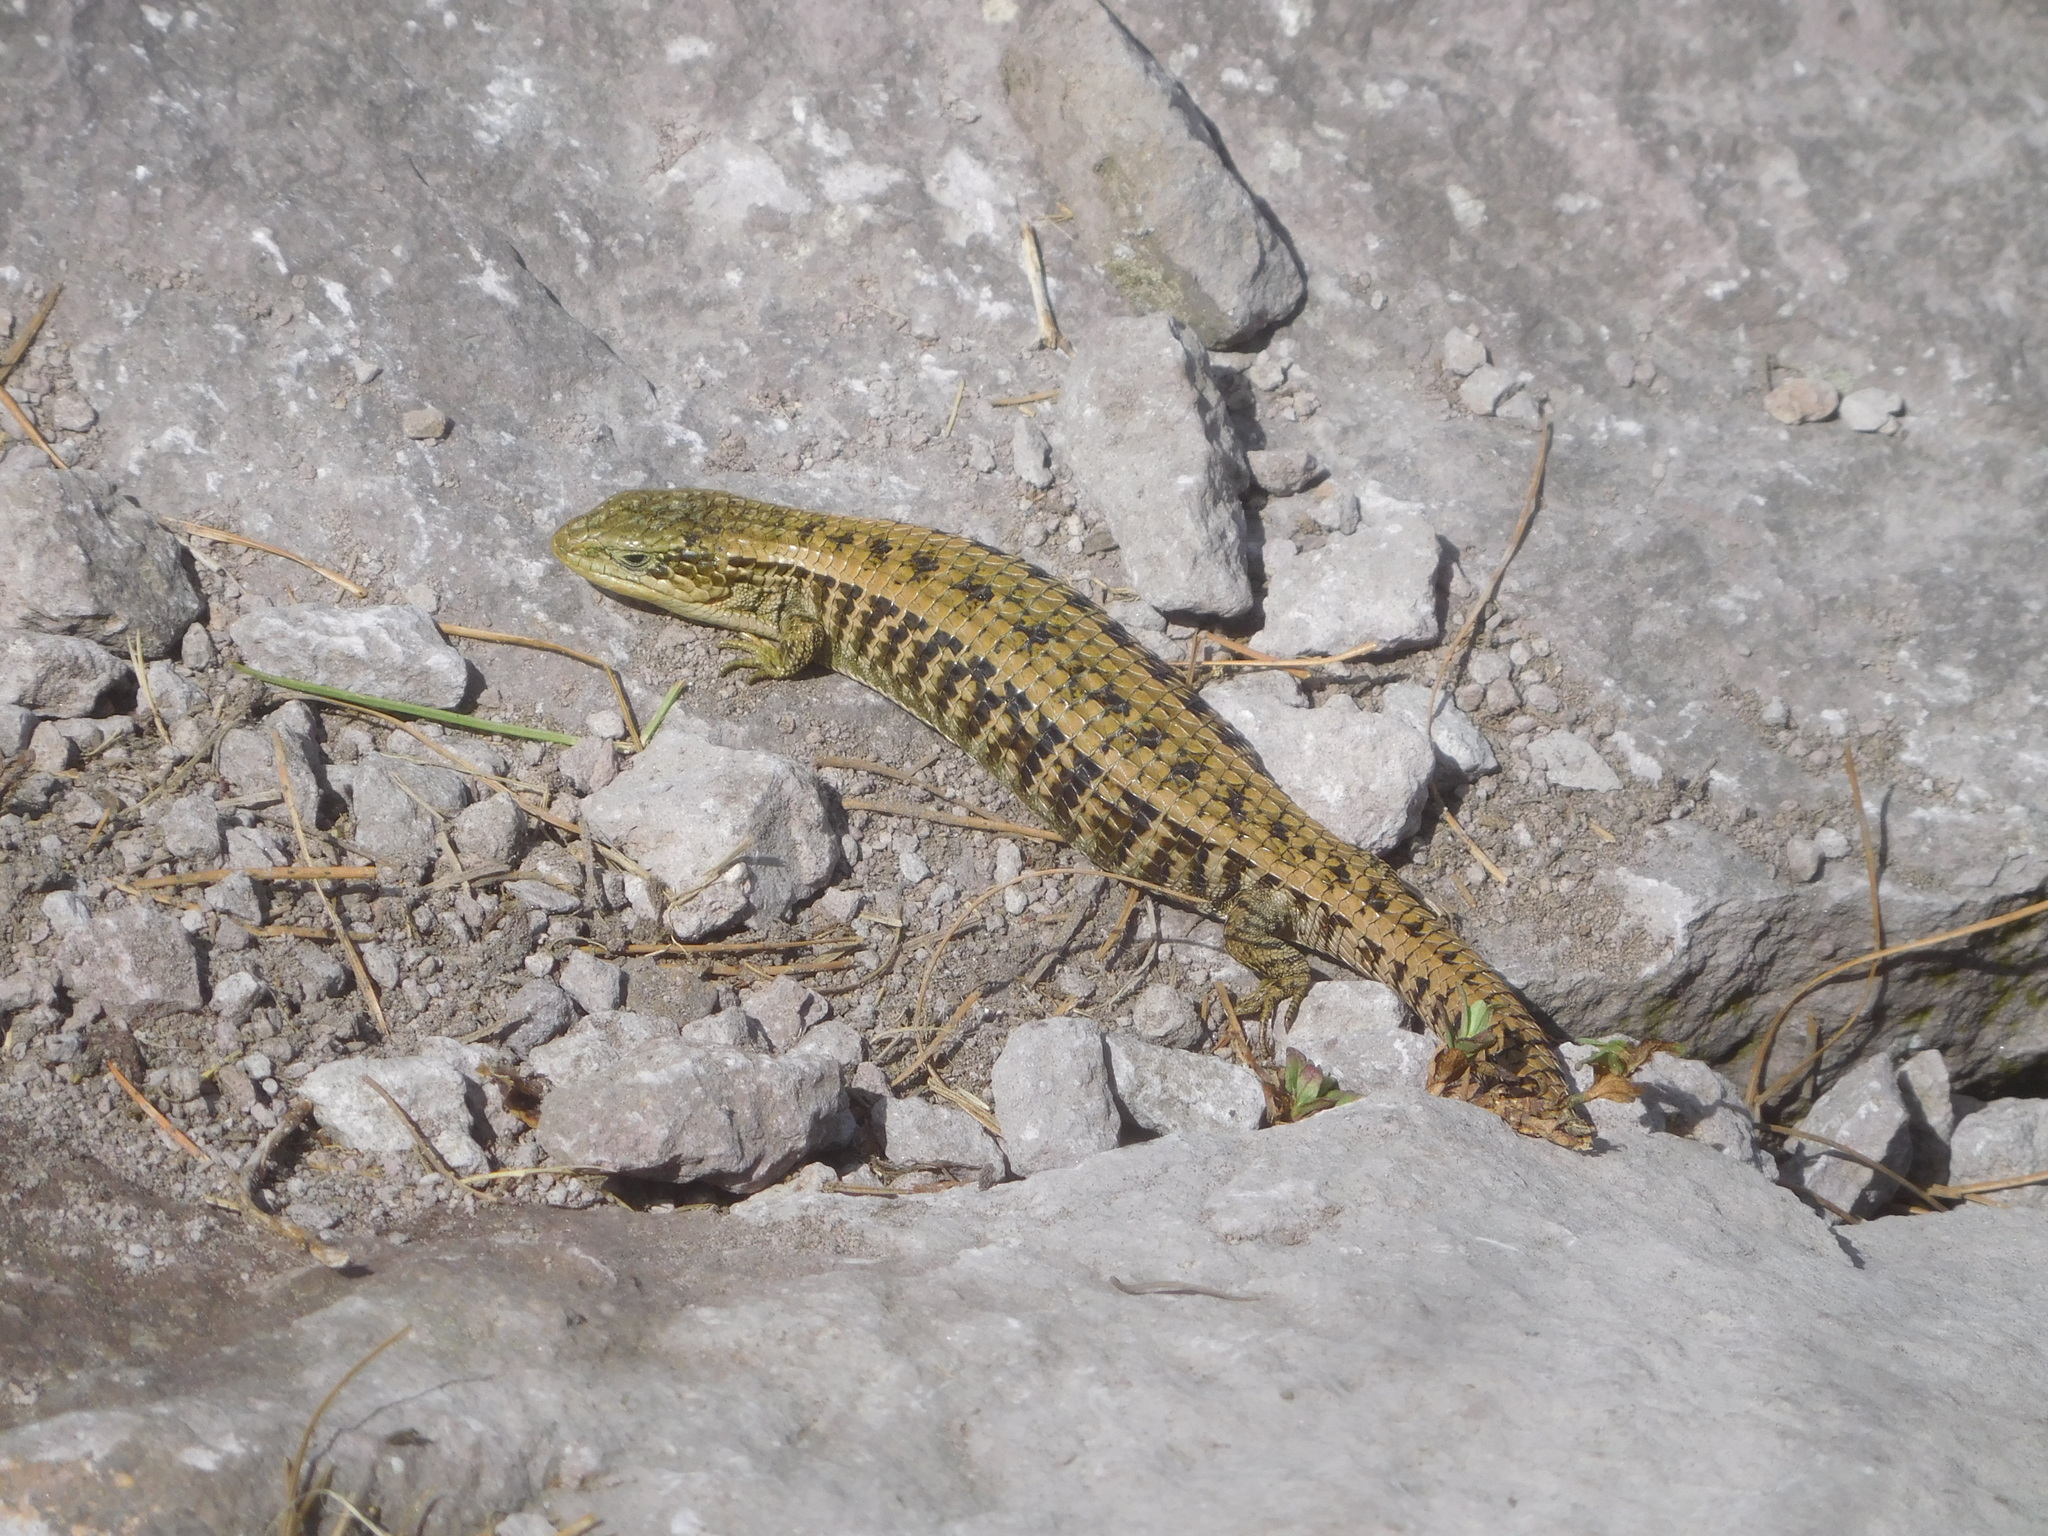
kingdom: Animalia
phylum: Chordata
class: Squamata
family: Anguidae
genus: Barisia
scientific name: Barisia imbricata
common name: Imbricate alligator lizard
